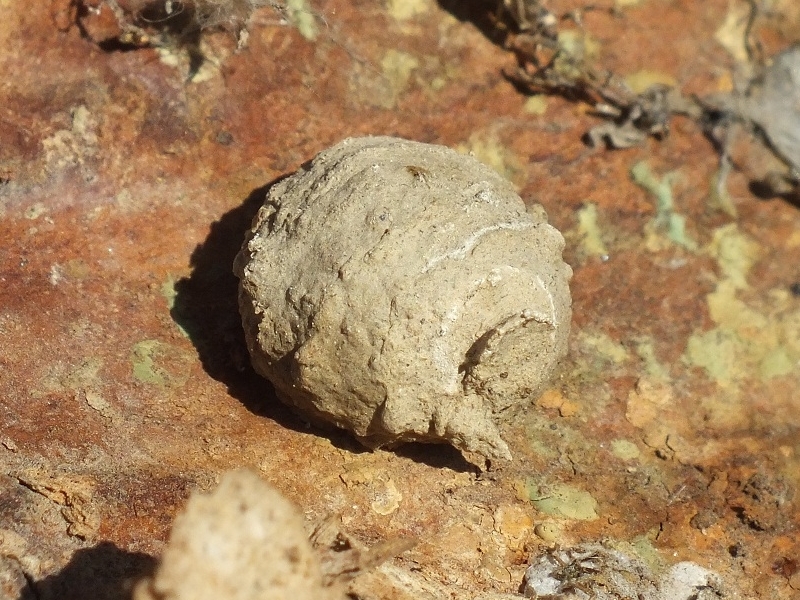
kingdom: Animalia
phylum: Arthropoda
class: Insecta
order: Hymenoptera
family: Vespidae
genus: Eumenes
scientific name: Eumenes
